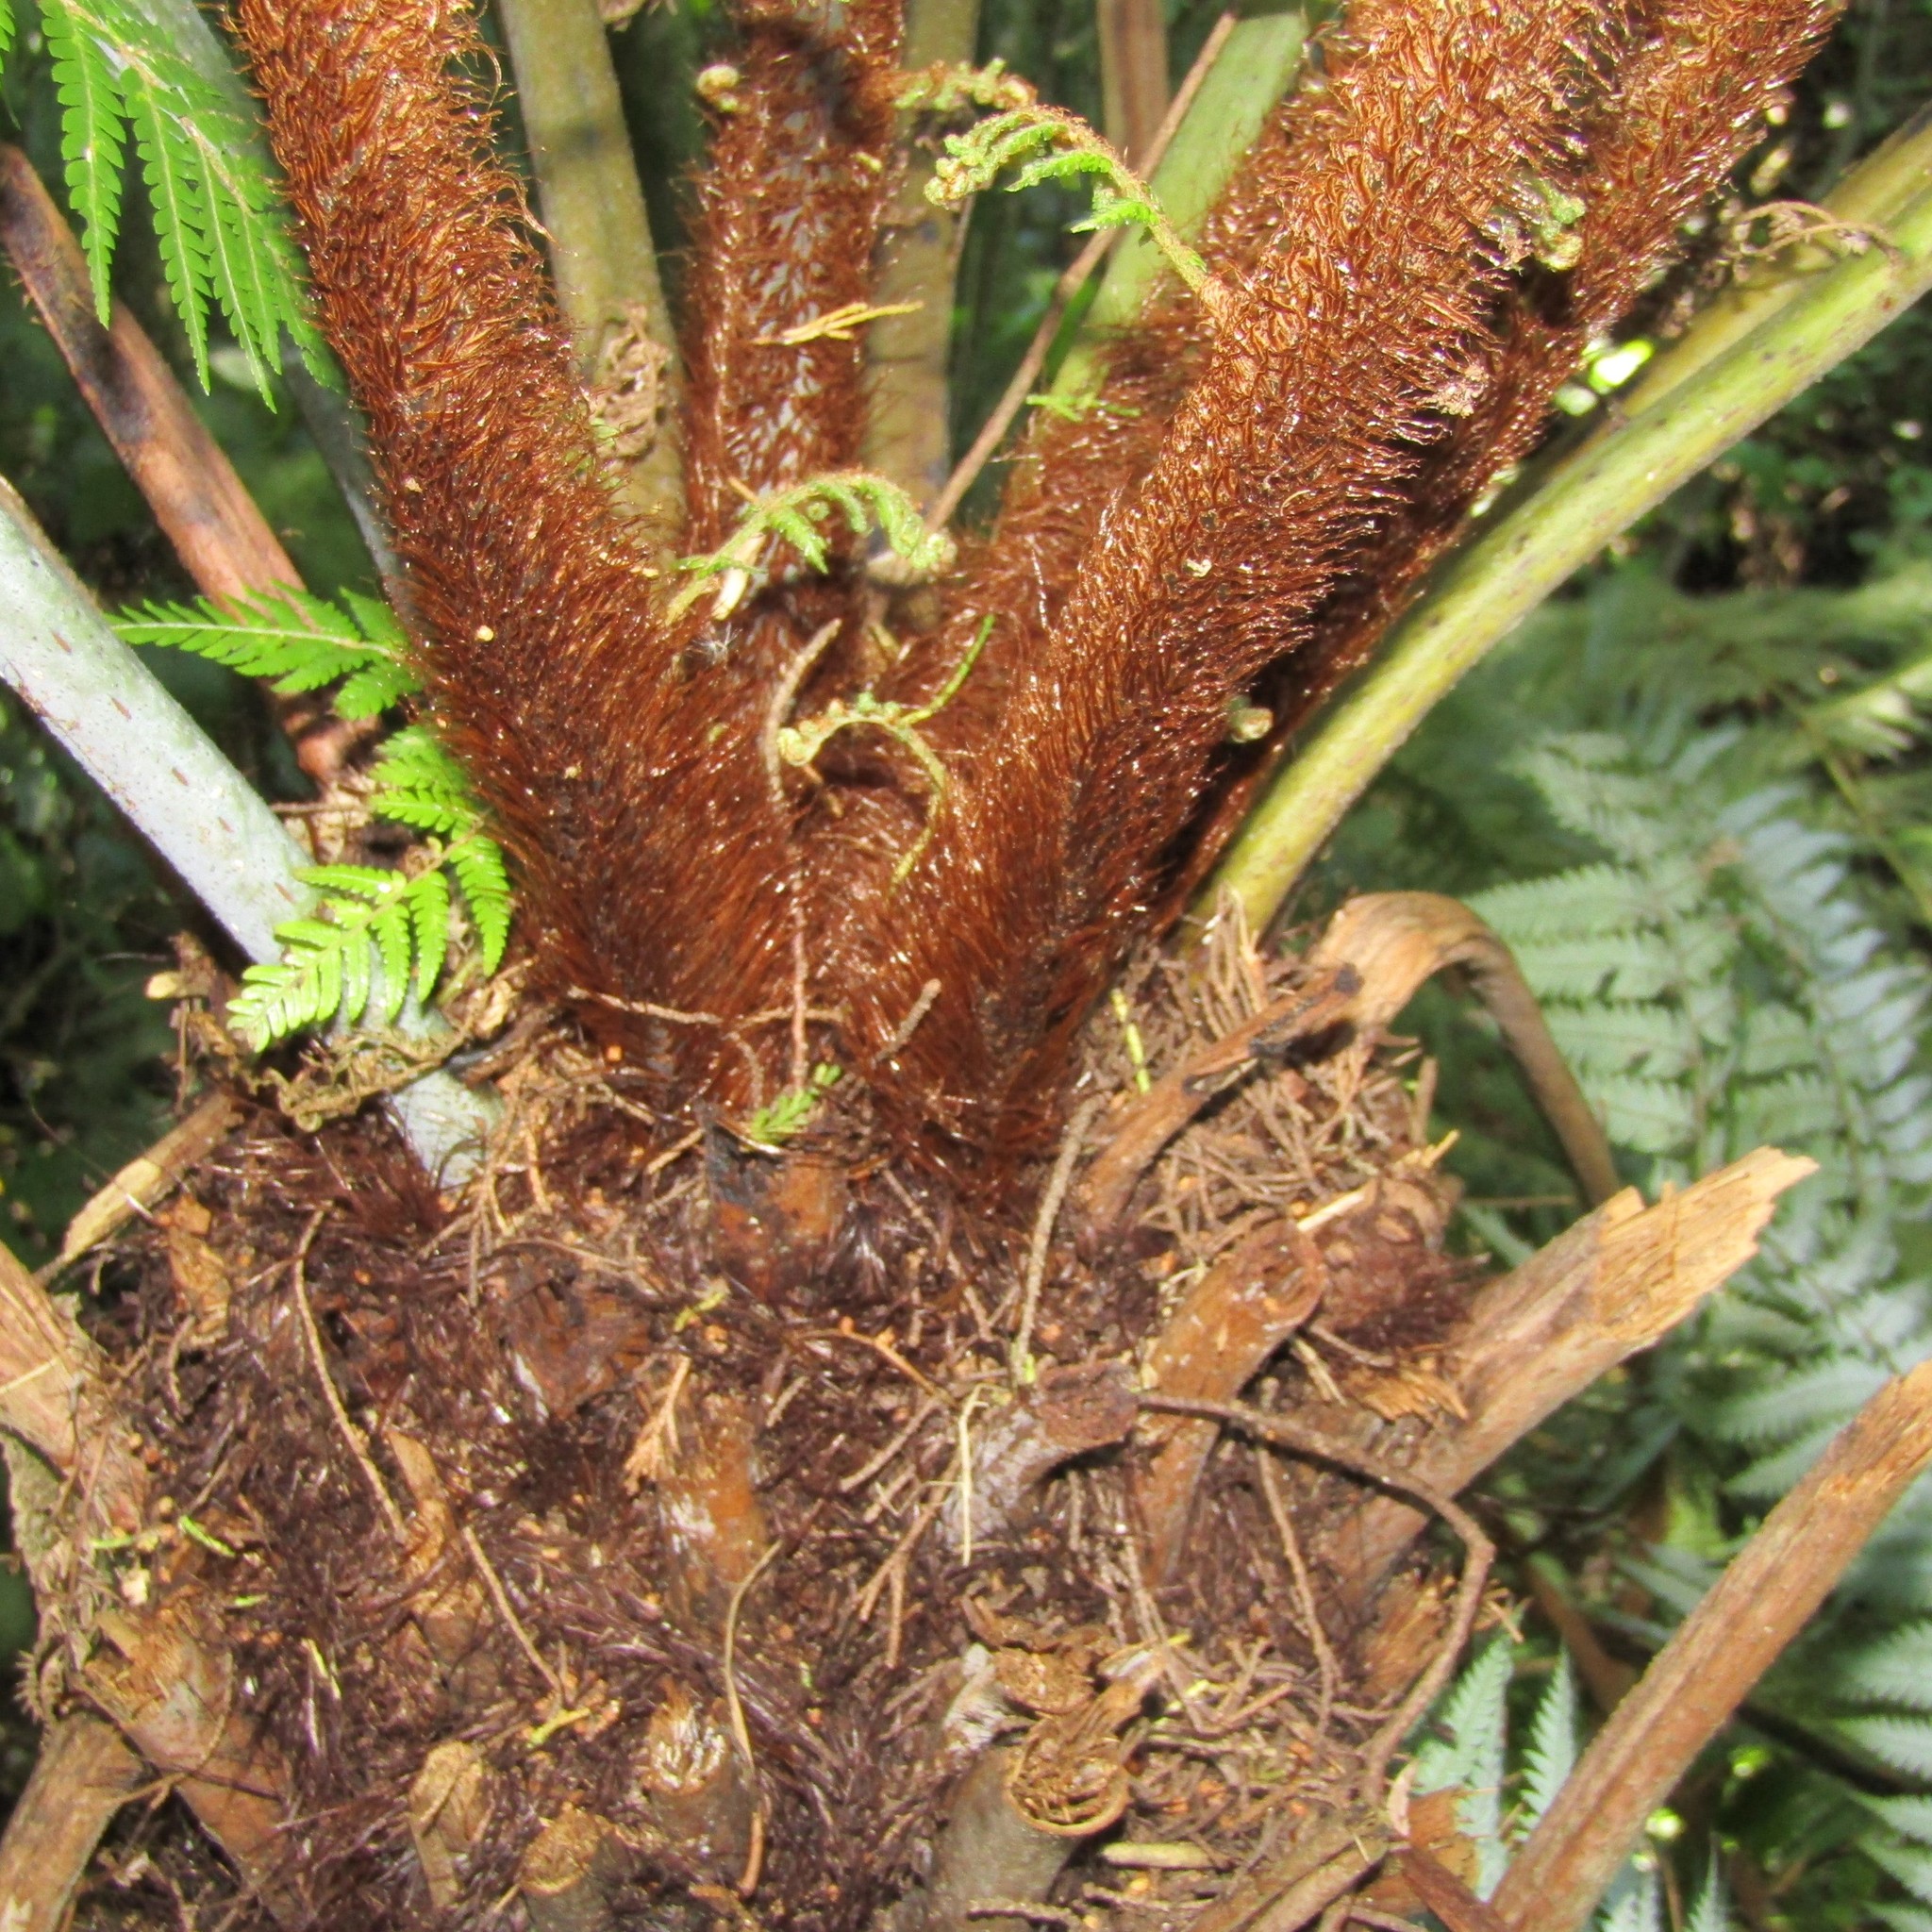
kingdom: Plantae
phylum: Tracheophyta
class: Polypodiopsida
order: Cyatheales
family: Cyatheaceae
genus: Alsophila
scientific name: Alsophila dealbata
